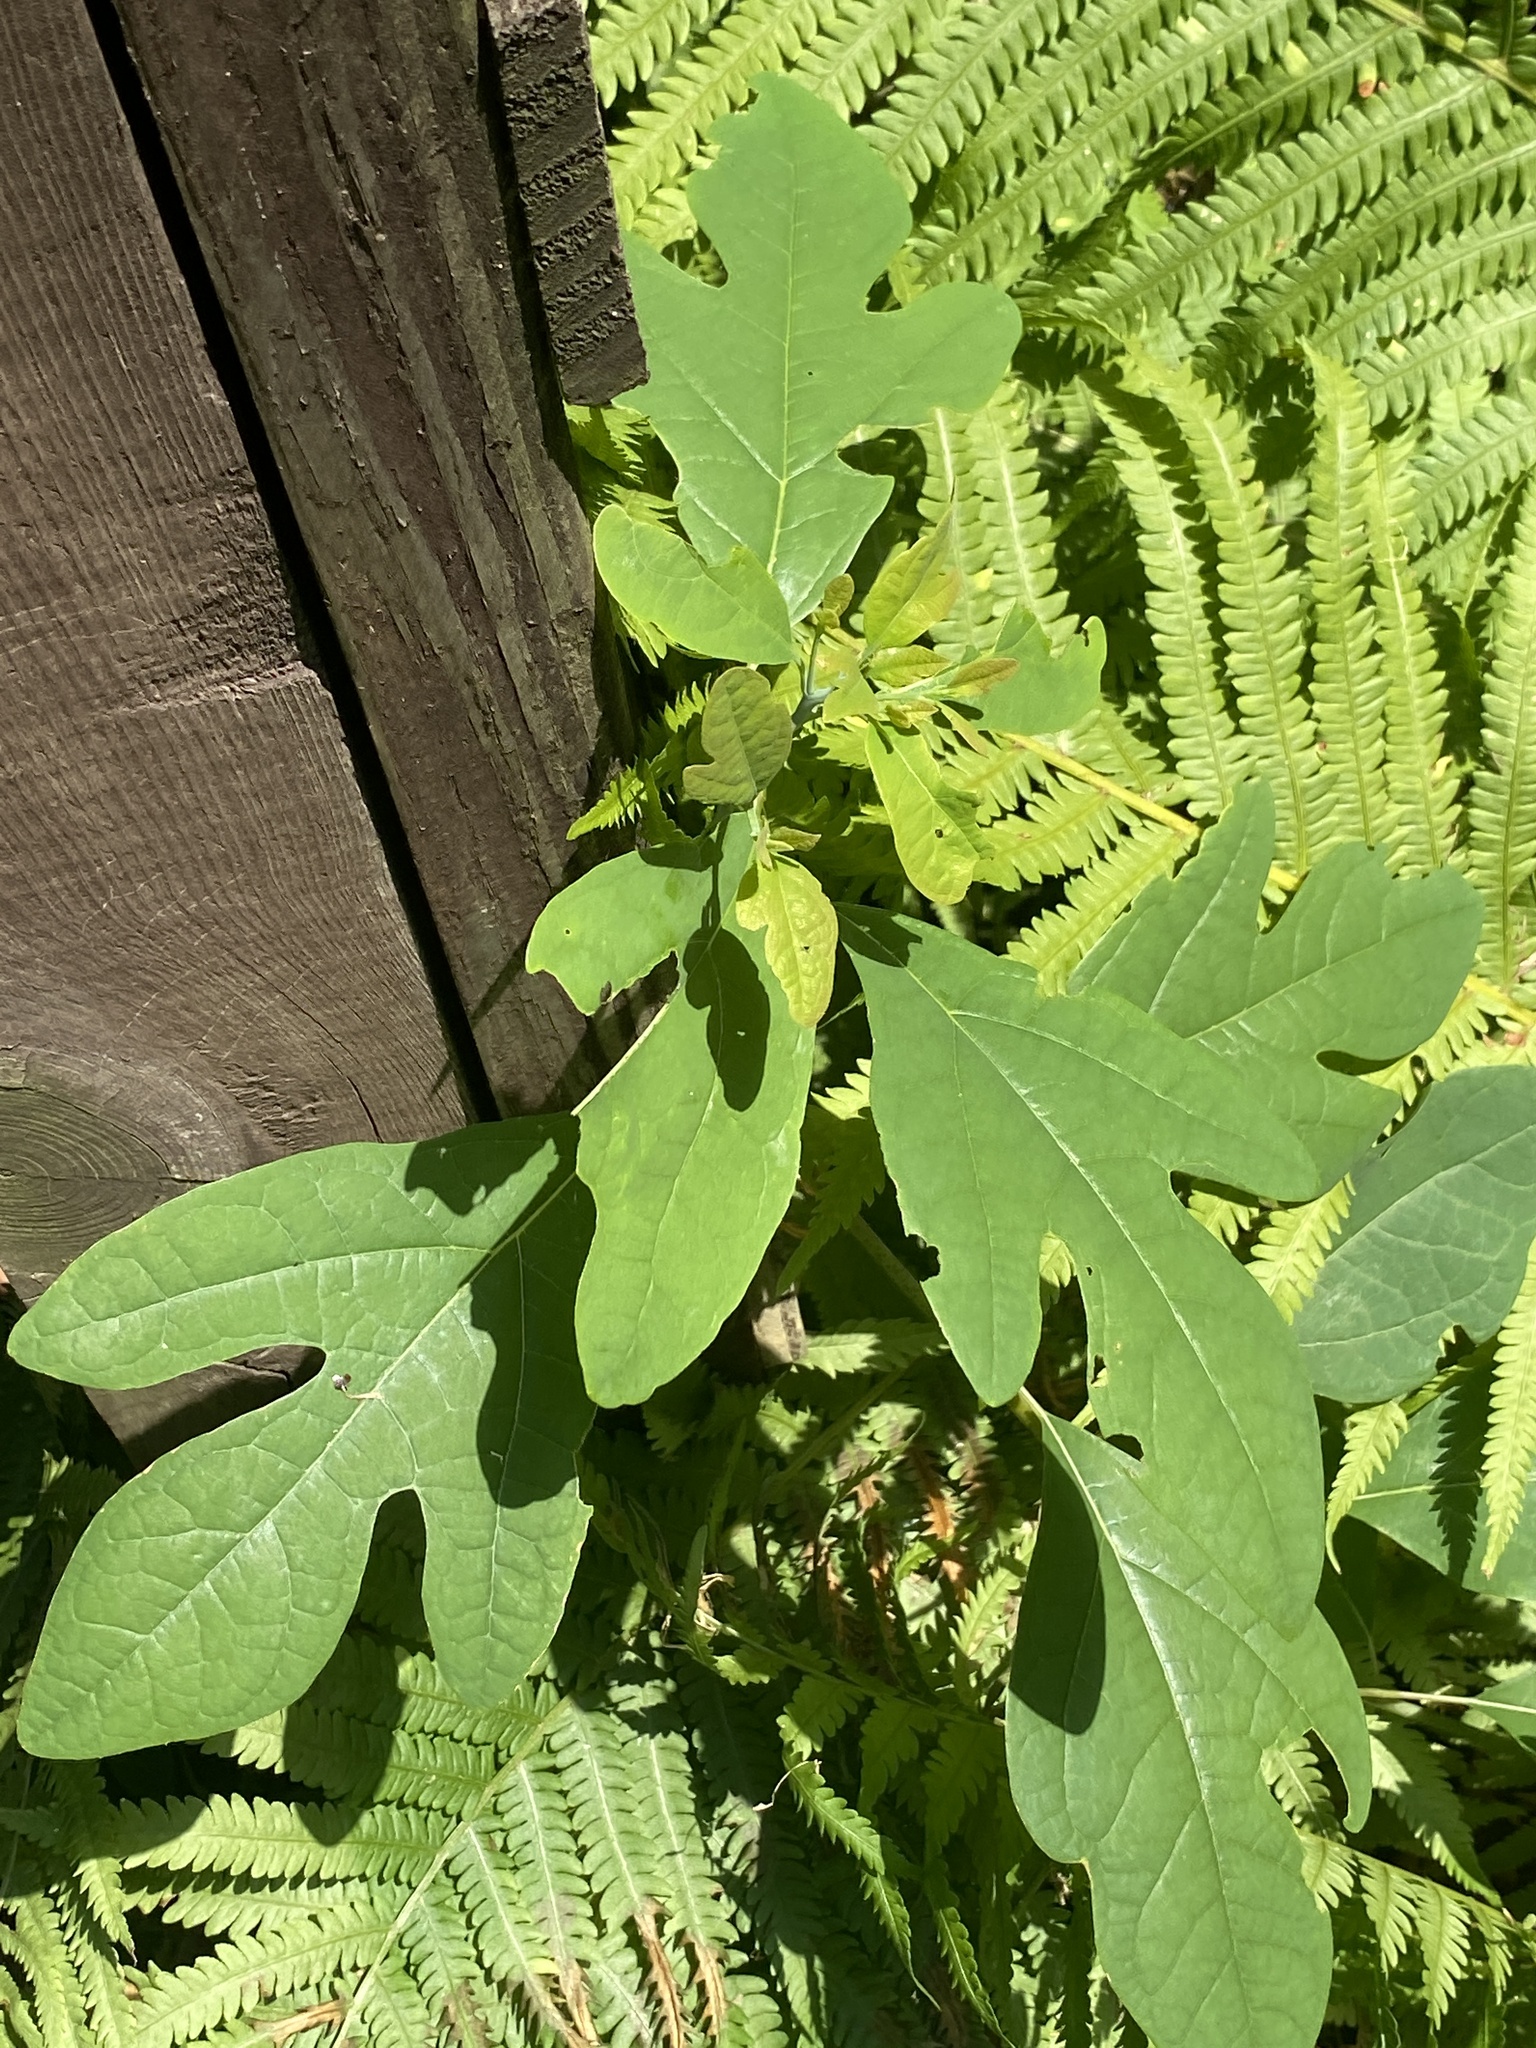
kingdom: Plantae
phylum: Tracheophyta
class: Magnoliopsida
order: Laurales
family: Lauraceae
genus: Sassafras
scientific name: Sassafras albidum
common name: Sassafras
